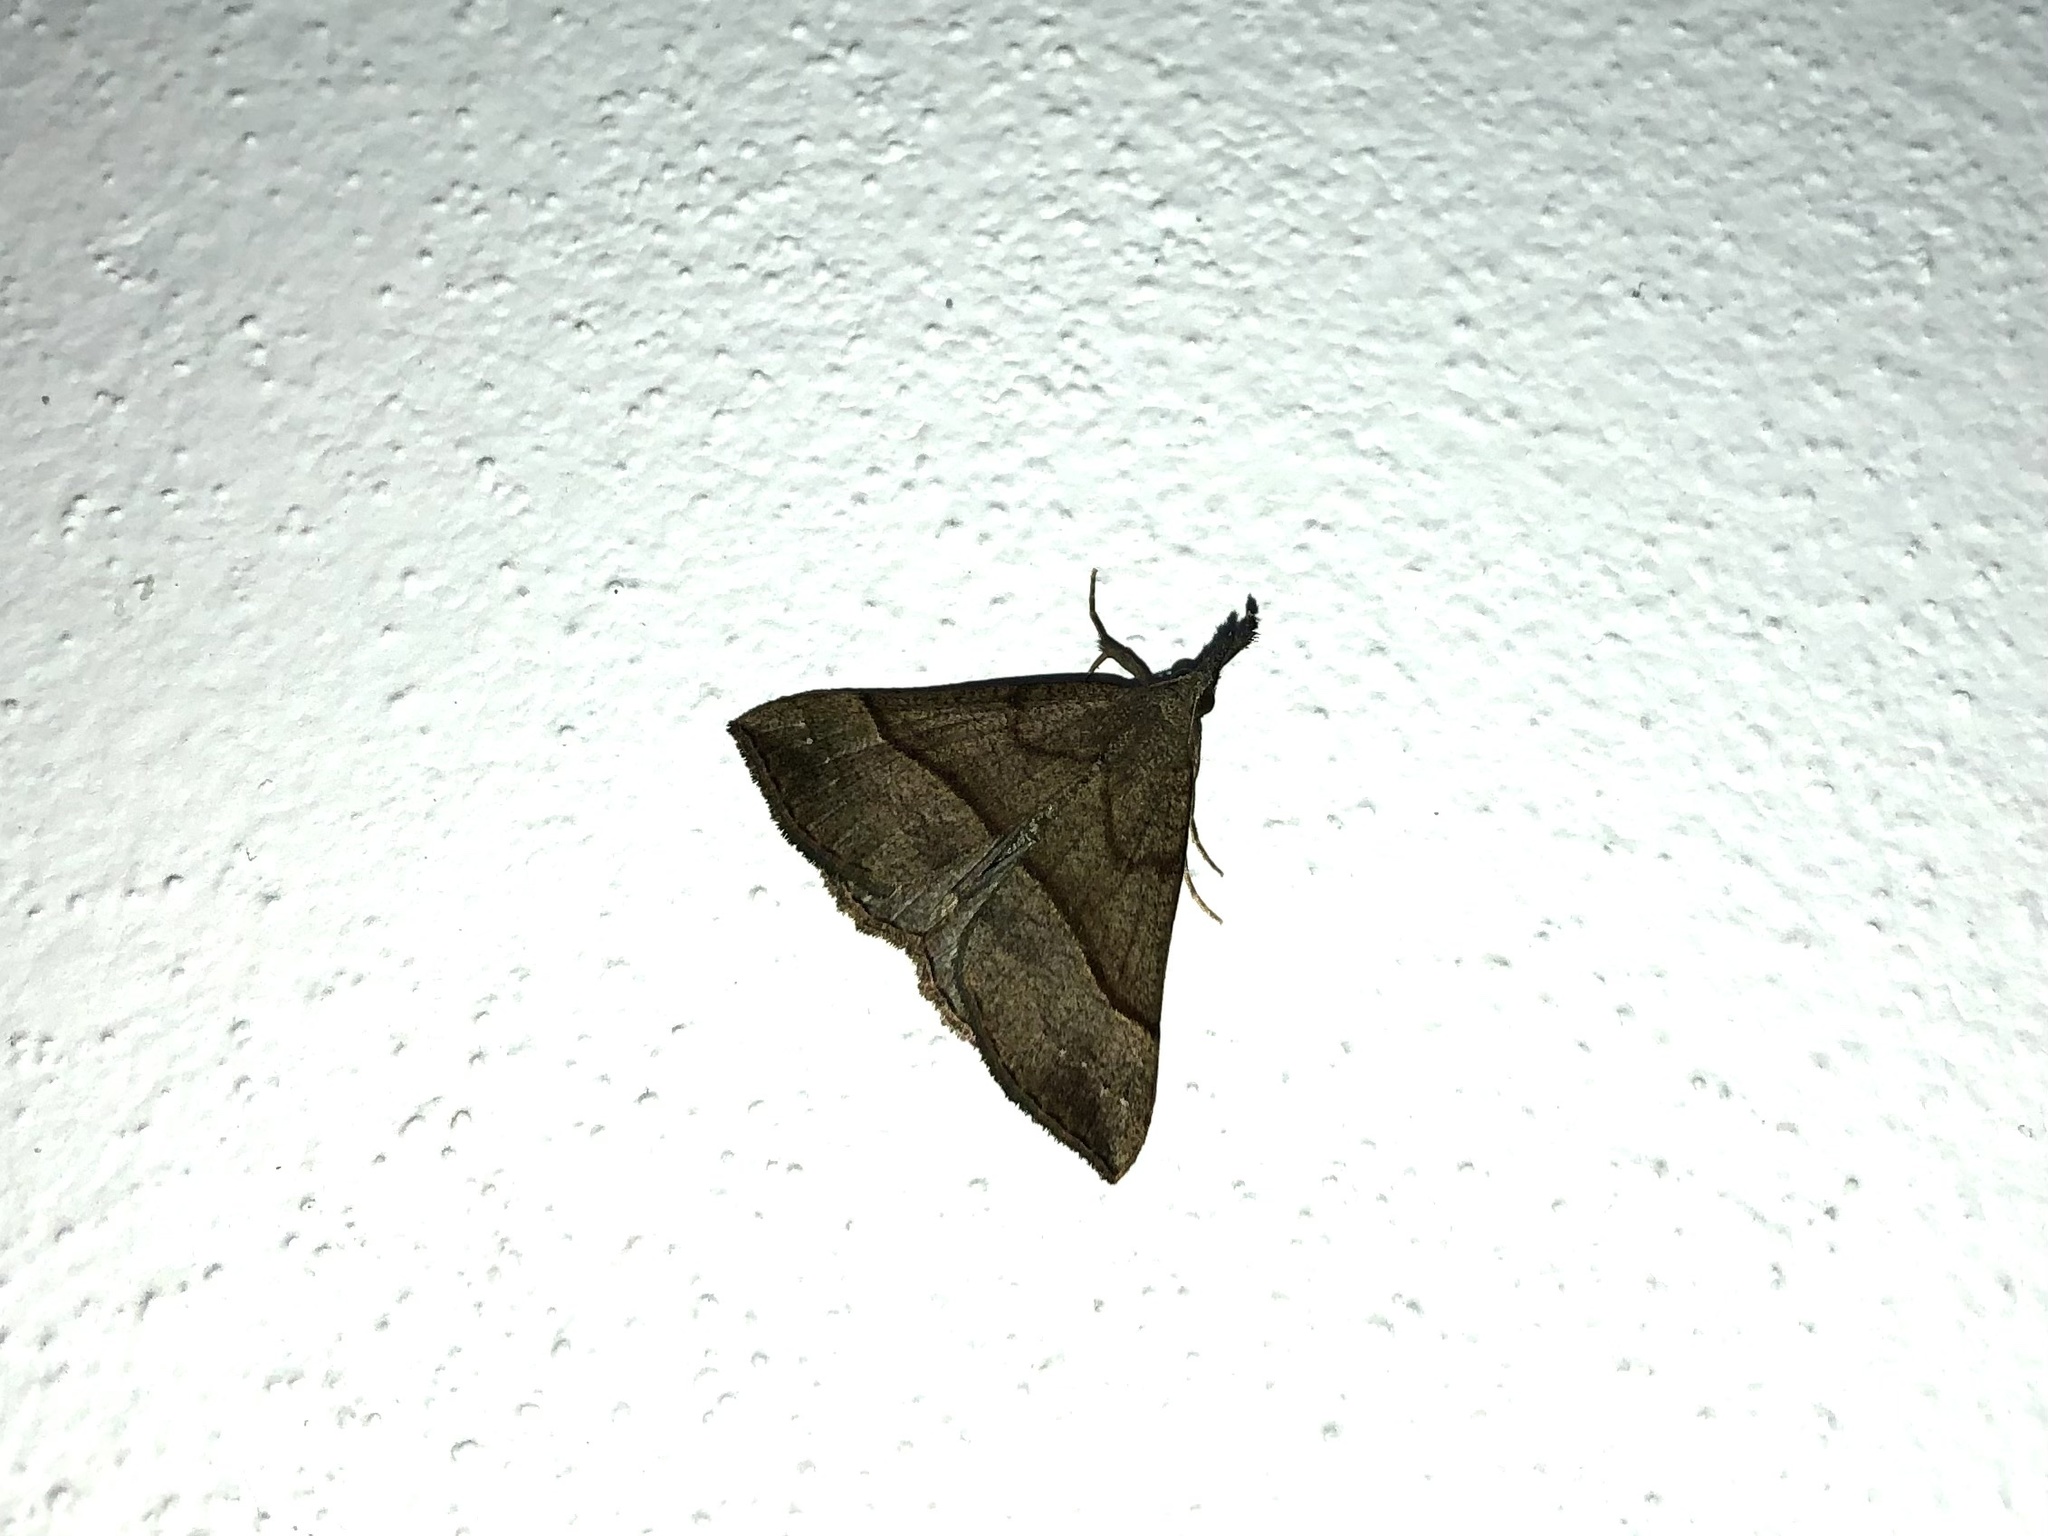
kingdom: Animalia
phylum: Arthropoda
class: Insecta
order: Lepidoptera
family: Erebidae
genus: Hypena
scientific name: Hypena proboscidalis
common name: Snout
